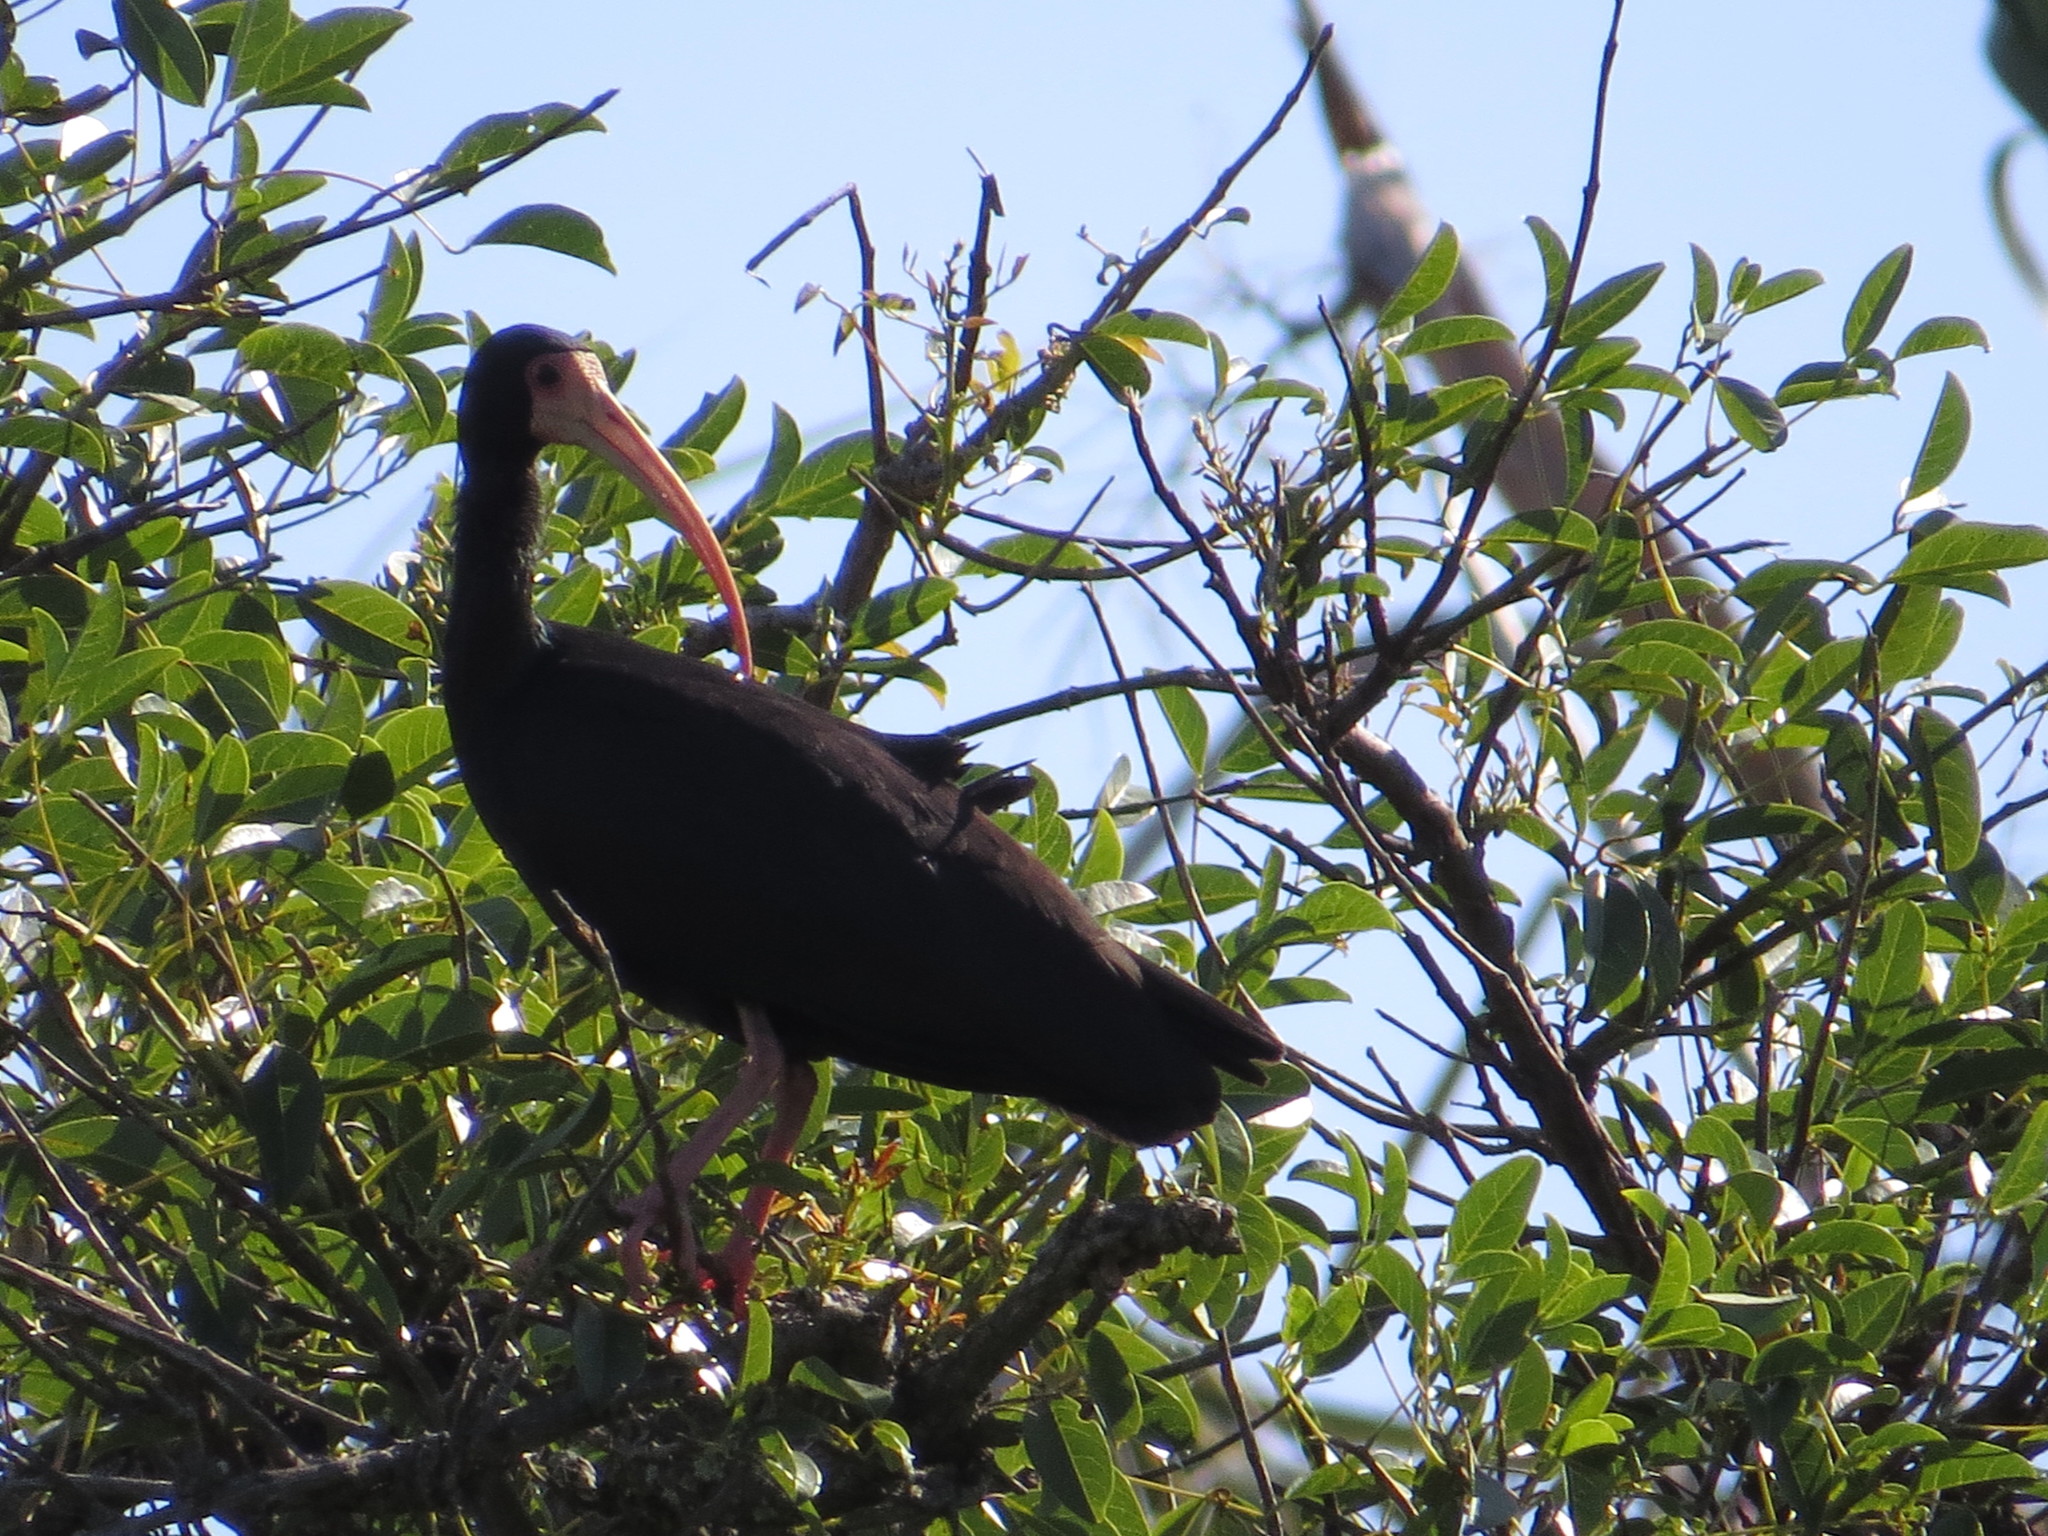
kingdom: Animalia
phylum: Chordata
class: Aves
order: Pelecaniformes
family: Threskiornithidae
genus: Phimosus
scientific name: Phimosus infuscatus
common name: Bare-faced ibis
